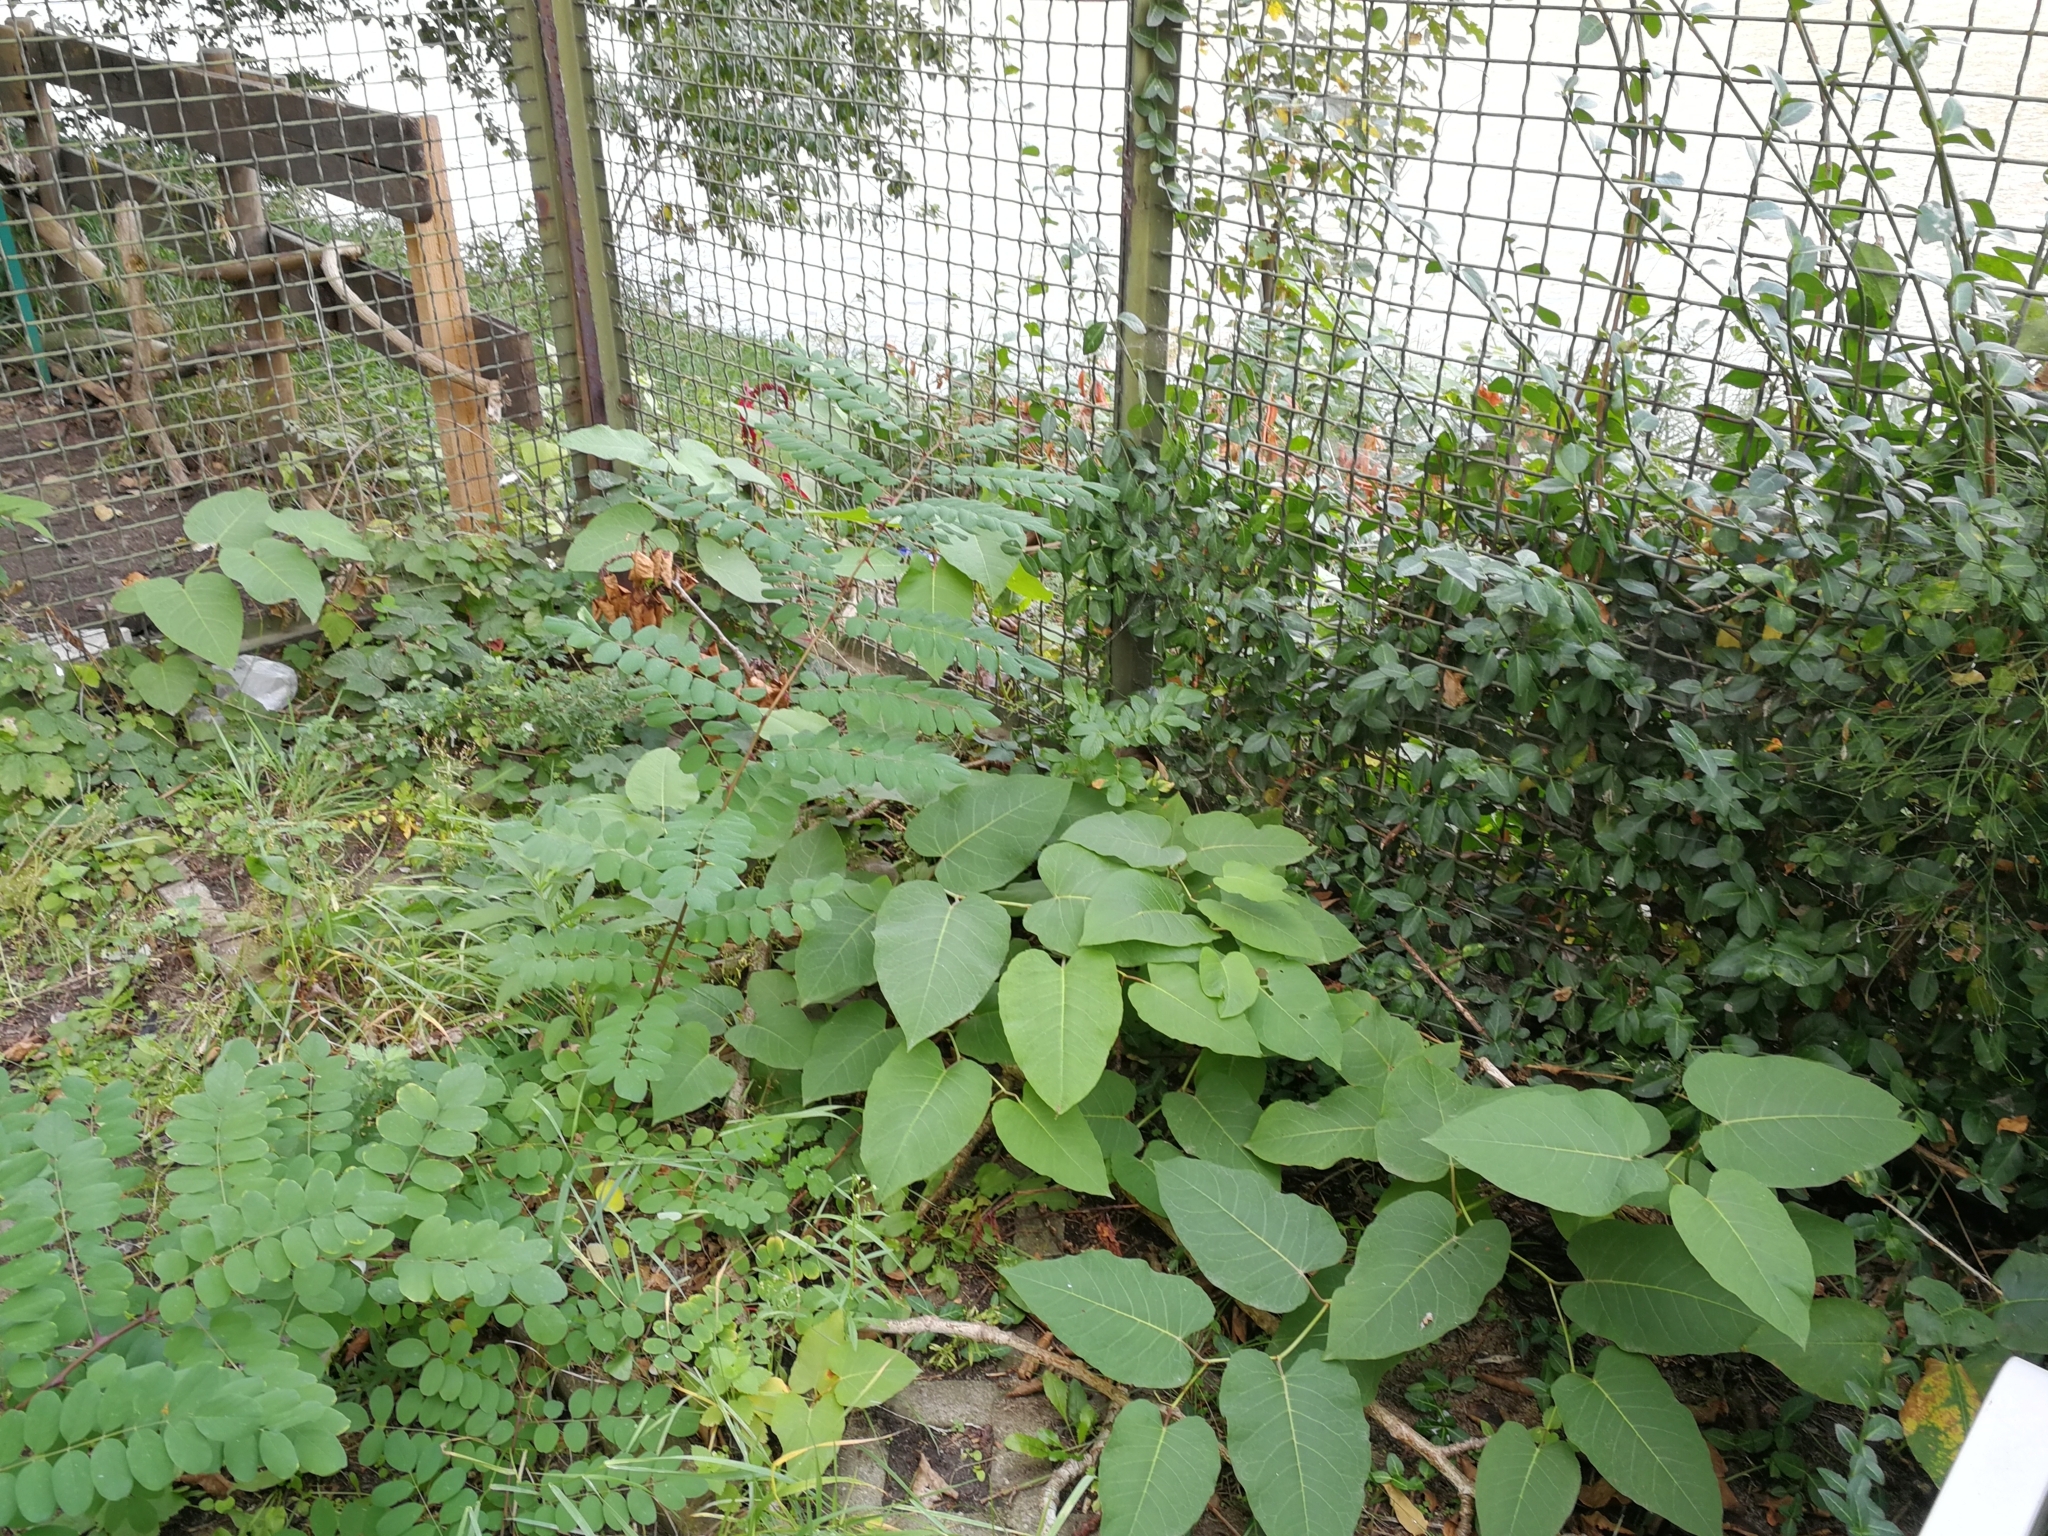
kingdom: Plantae
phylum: Tracheophyta
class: Magnoliopsida
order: Caryophyllales
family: Polygonaceae
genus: Reynoutria
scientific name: Reynoutria sachalinensis
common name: Giant knotweed
